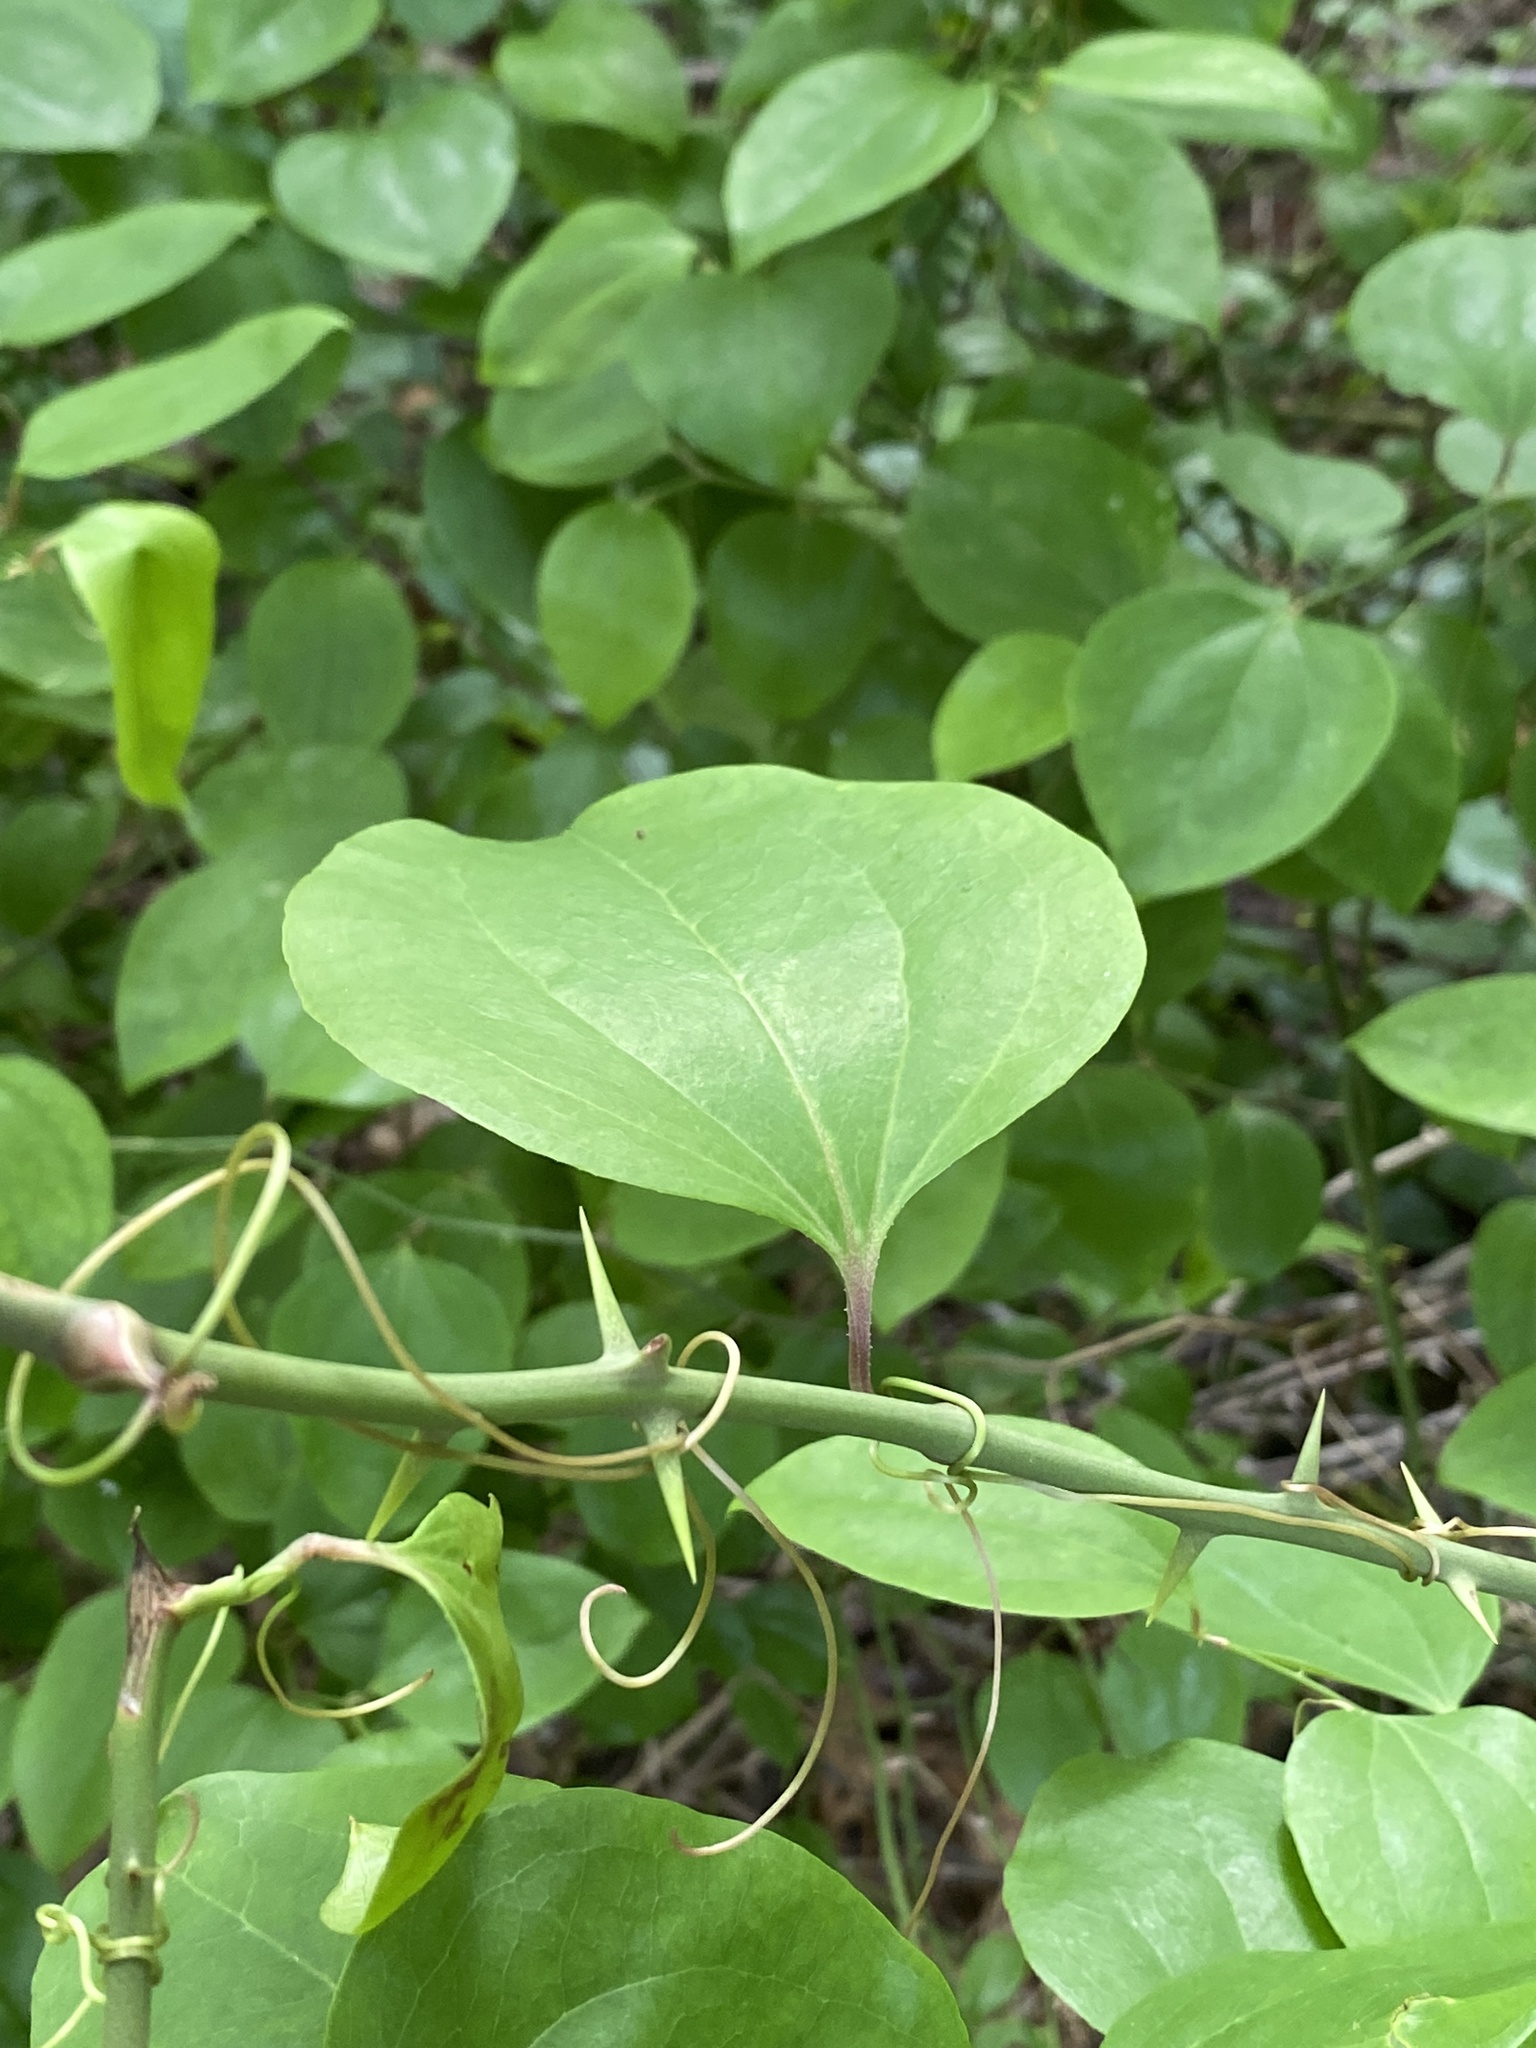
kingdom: Plantae
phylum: Tracheophyta
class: Liliopsida
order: Liliales
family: Smilacaceae
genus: Smilax
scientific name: Smilax rotundifolia
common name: Bullbriar
